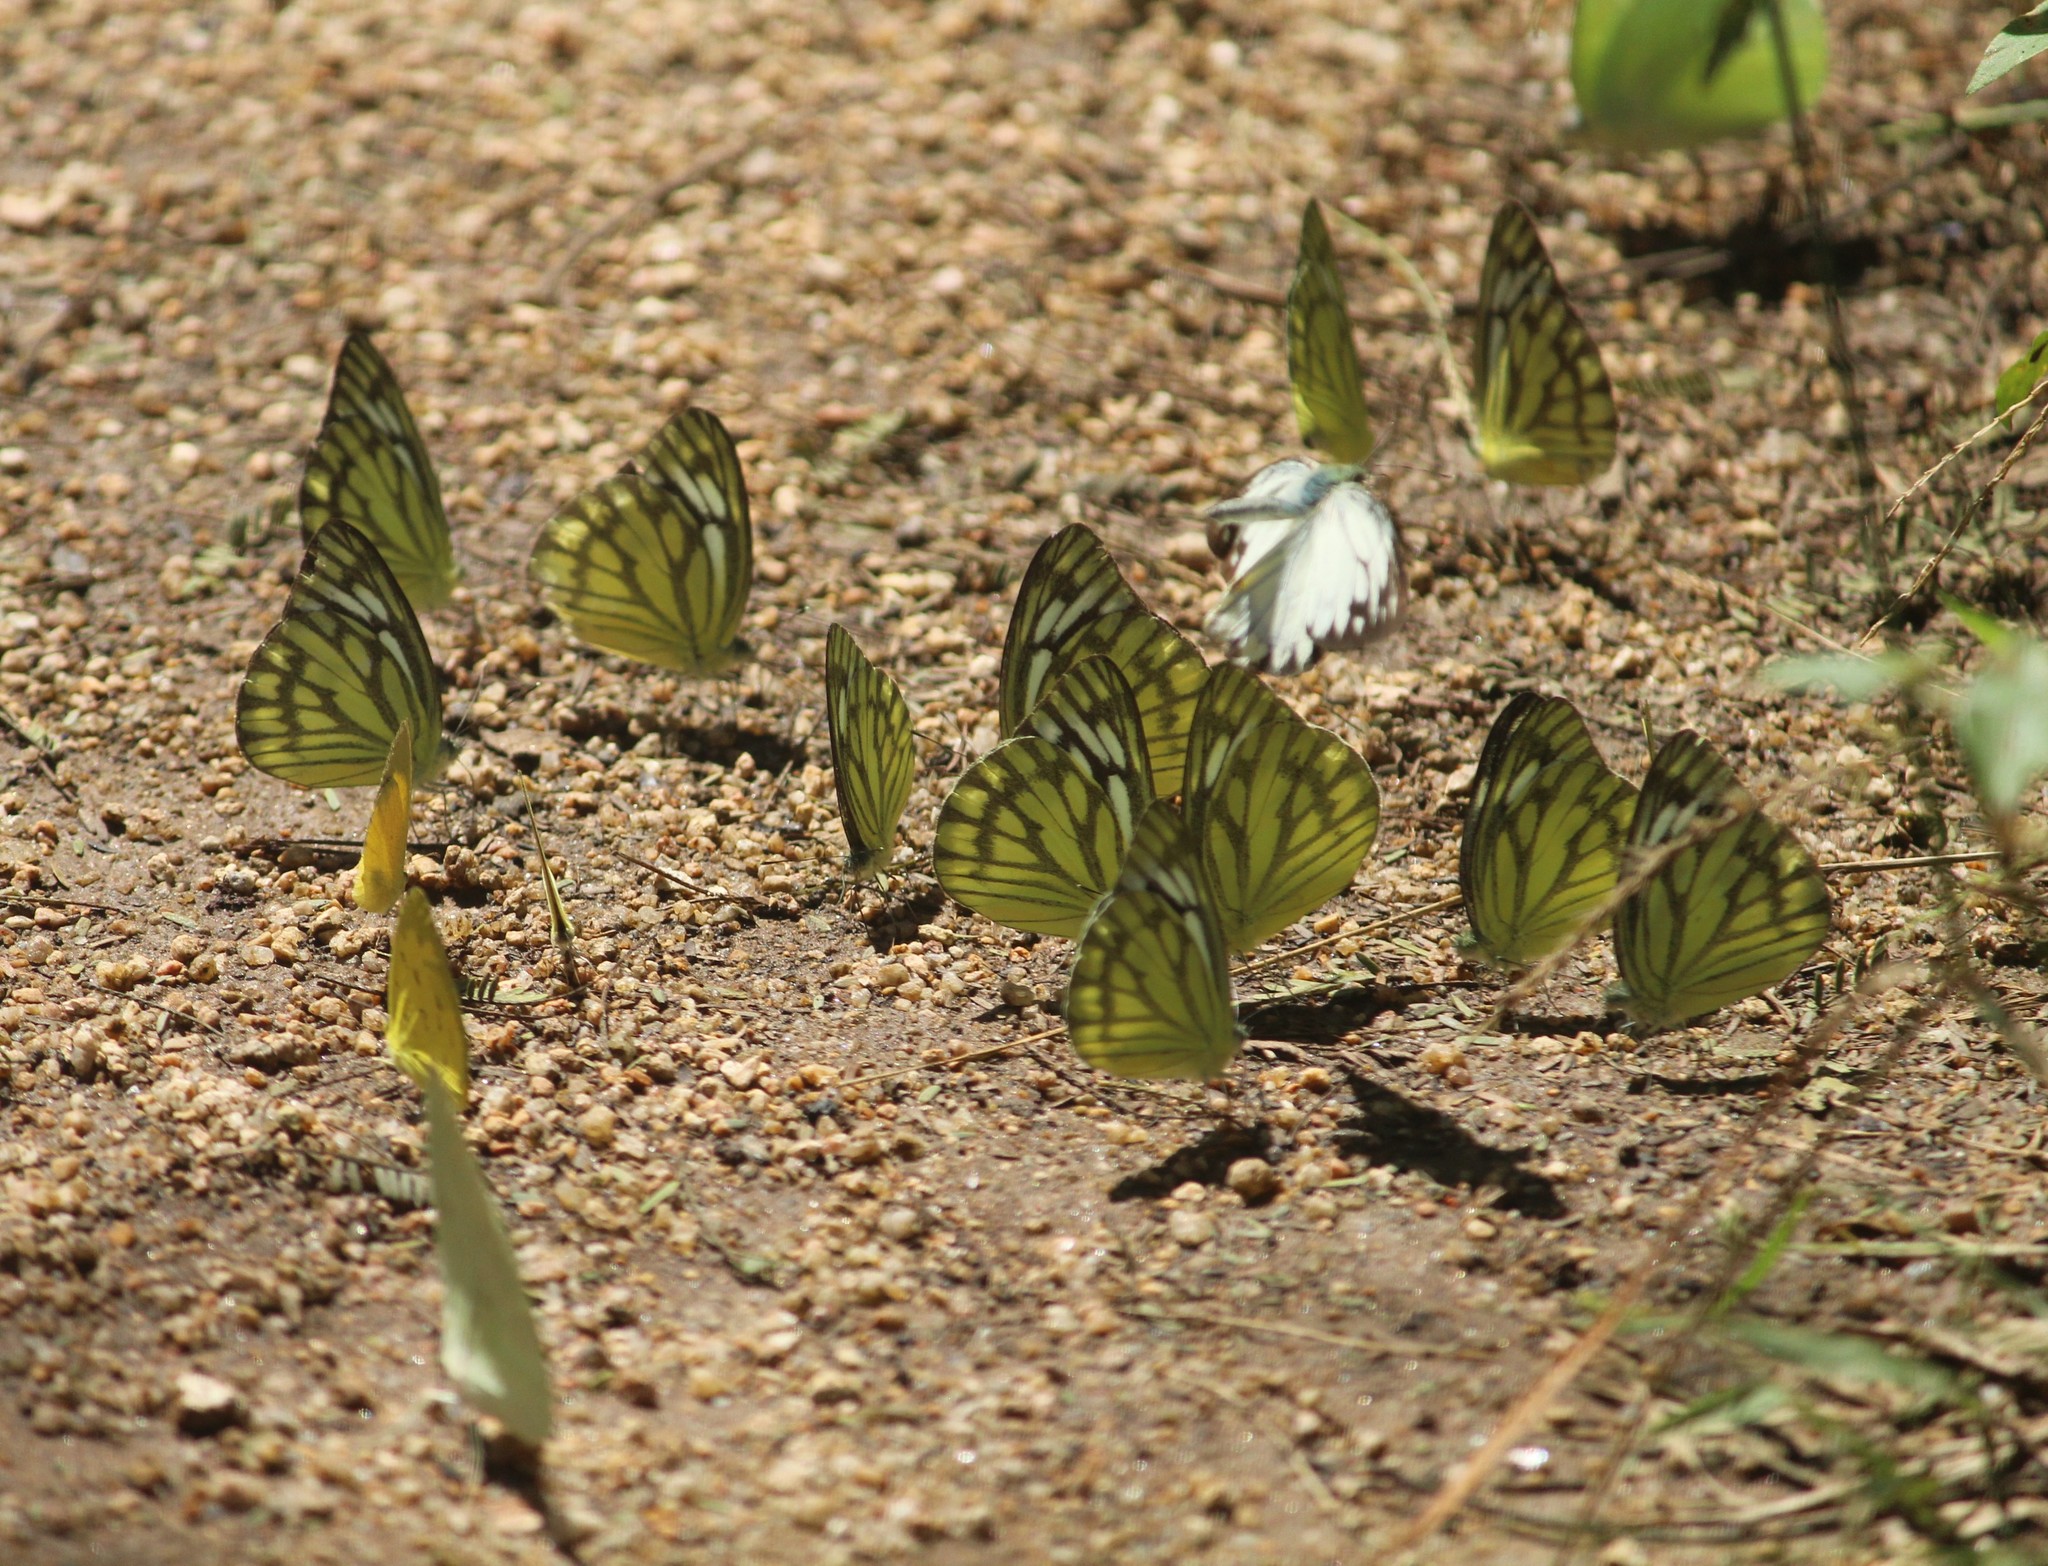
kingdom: Animalia
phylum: Arthropoda
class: Insecta
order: Lepidoptera
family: Pieridae
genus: Cepora
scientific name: Cepora nerissa
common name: Common gull
